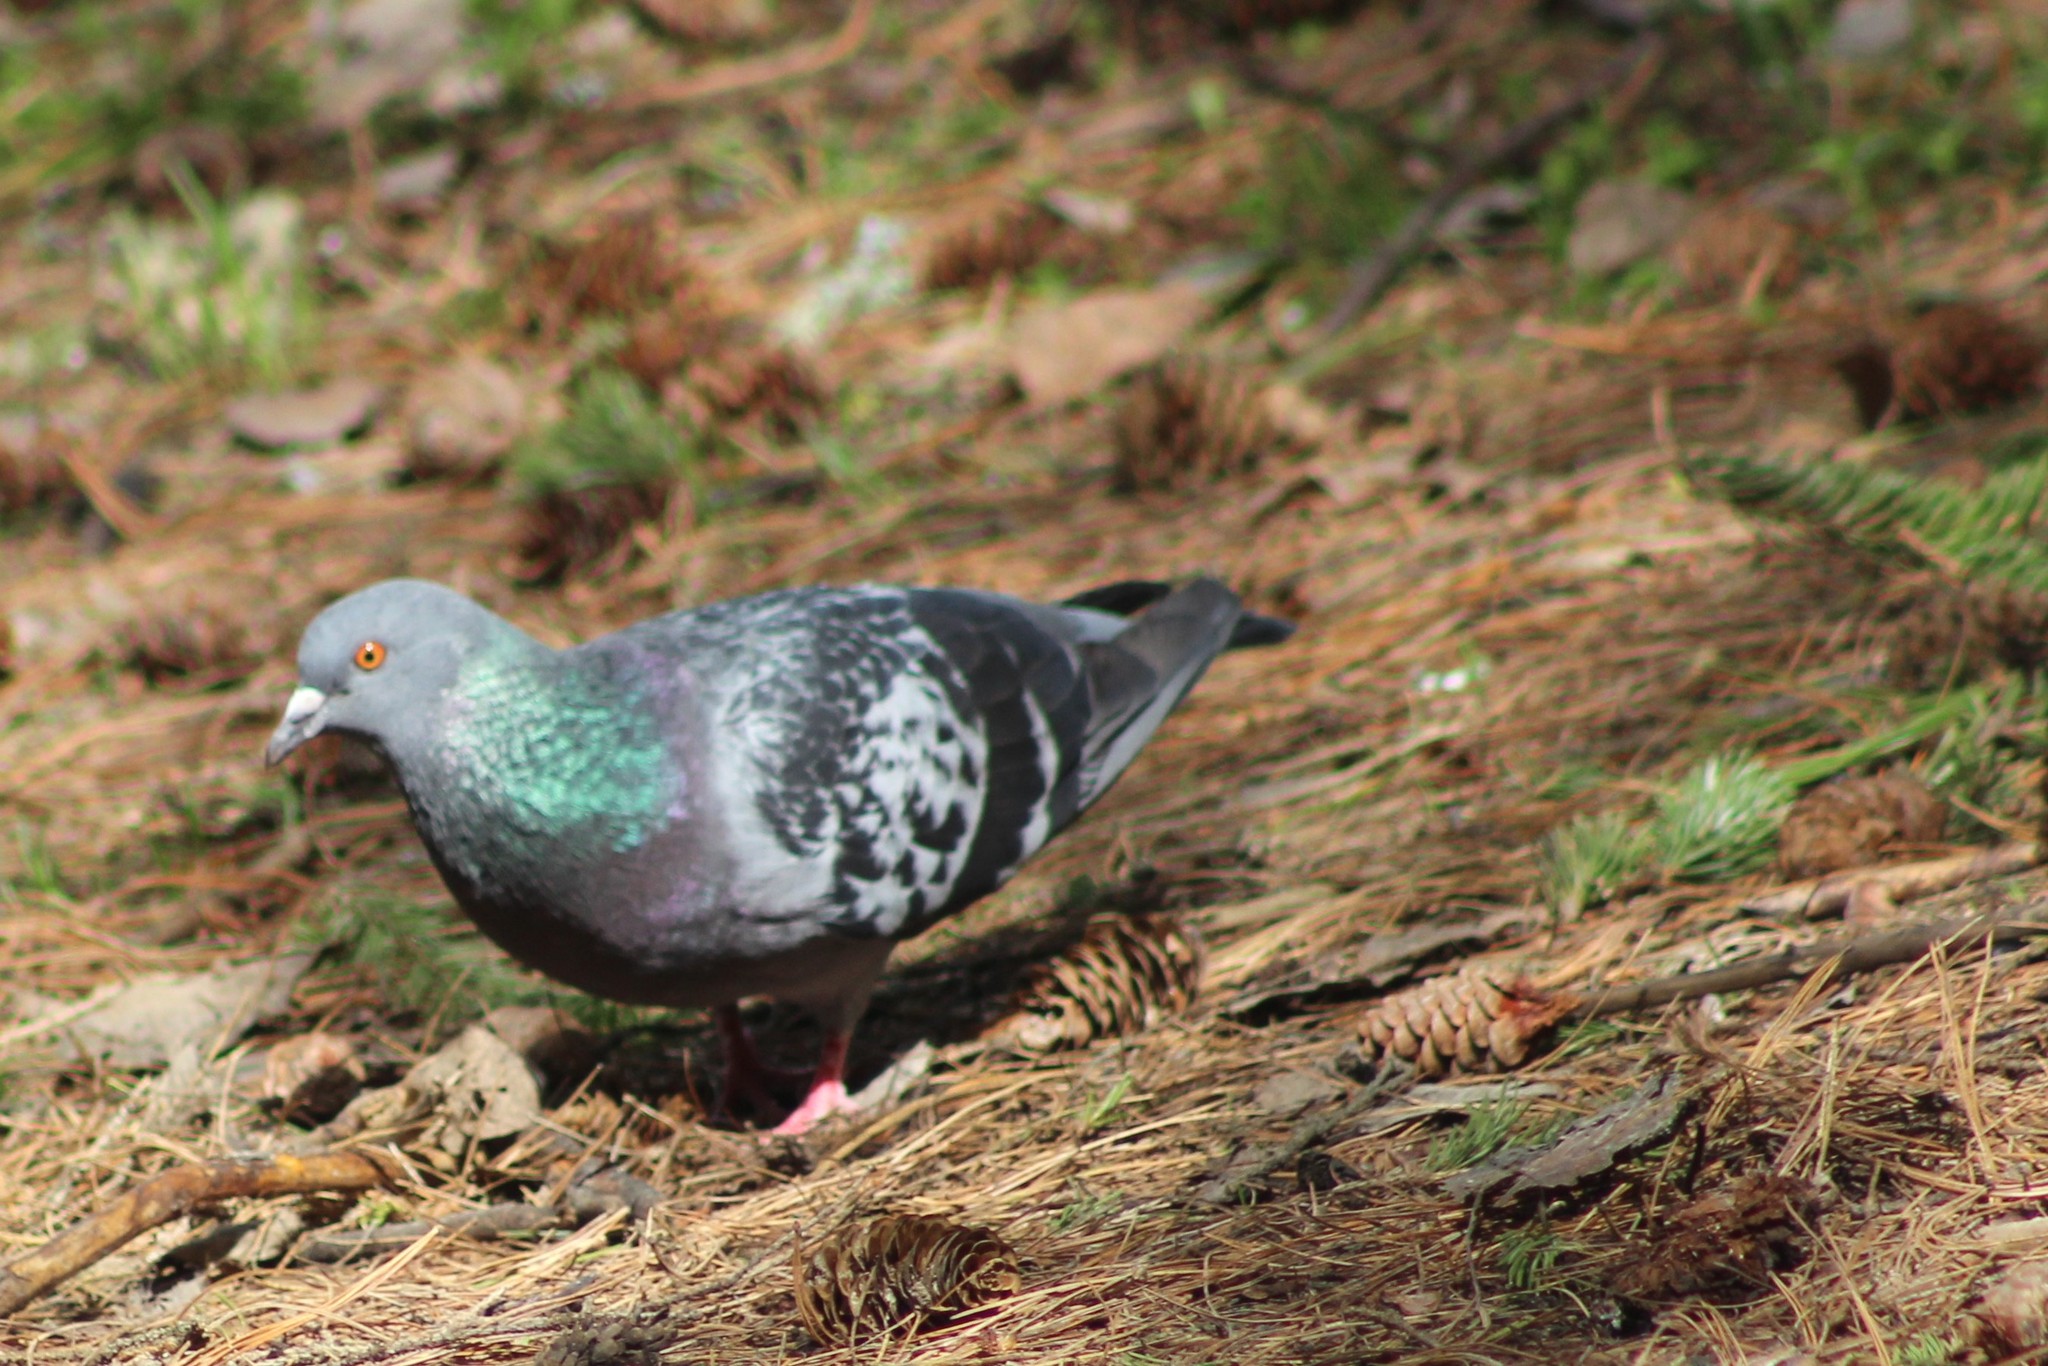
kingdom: Animalia
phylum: Chordata
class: Aves
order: Columbiformes
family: Columbidae
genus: Columba
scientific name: Columba livia
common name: Rock pigeon
